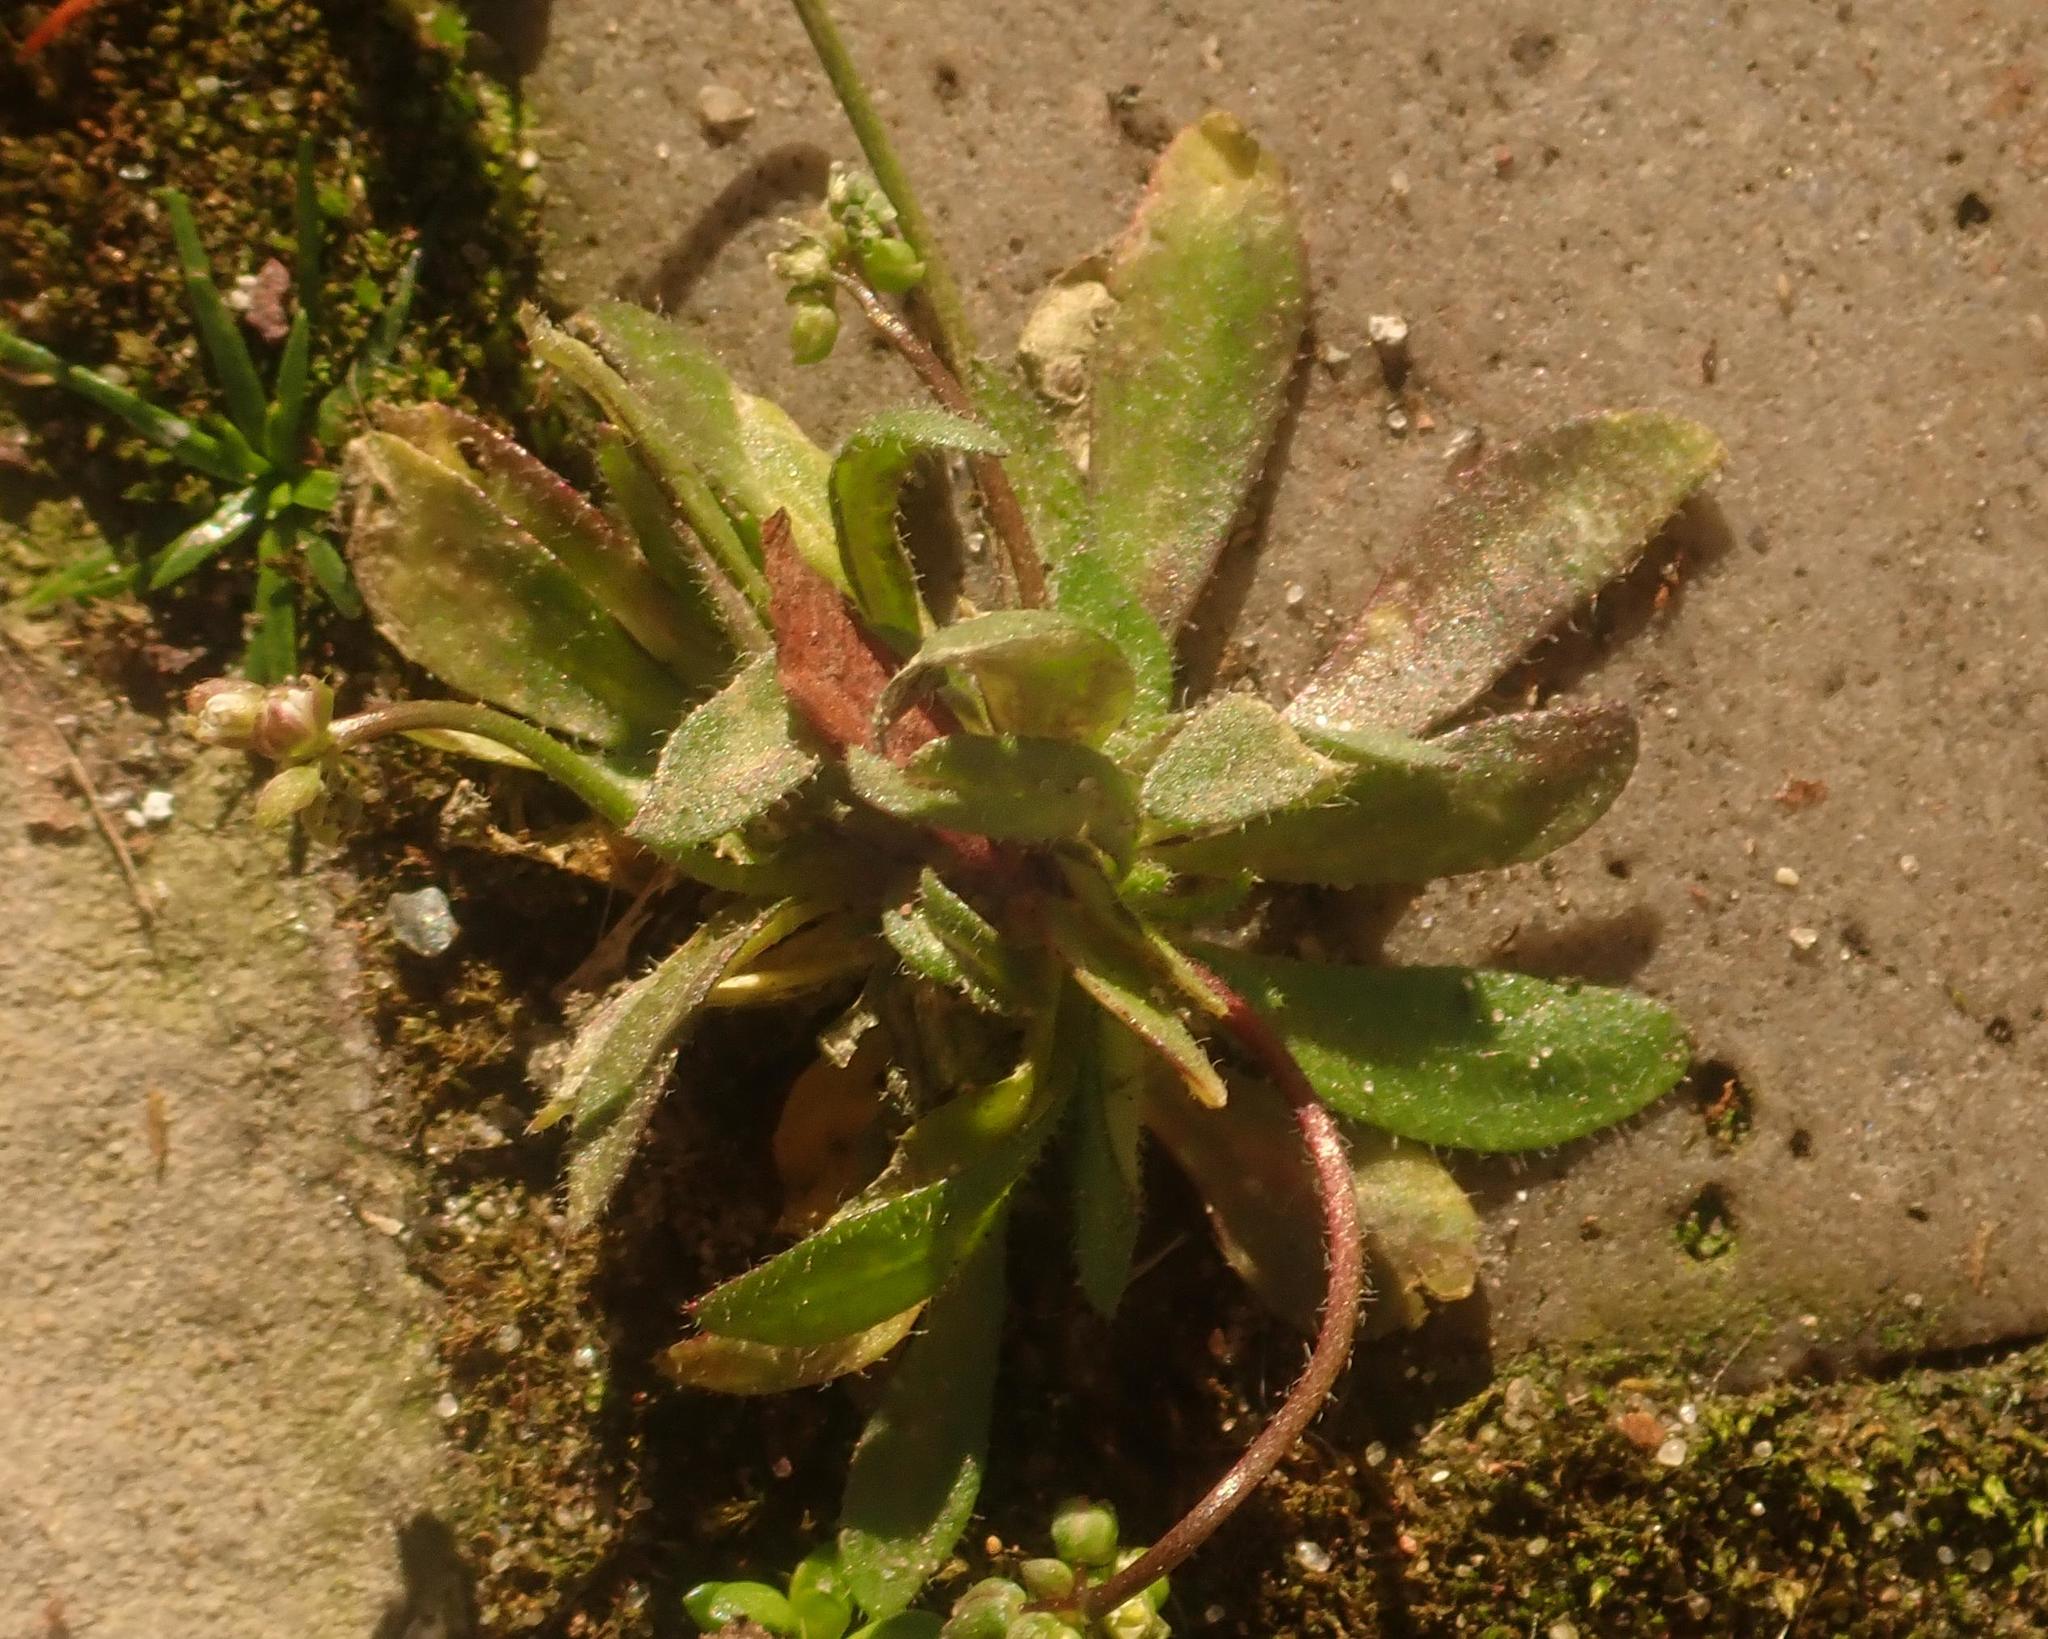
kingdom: Plantae
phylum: Tracheophyta
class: Magnoliopsida
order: Brassicales
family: Brassicaceae
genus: Draba
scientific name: Draba verna
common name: Spring draba
